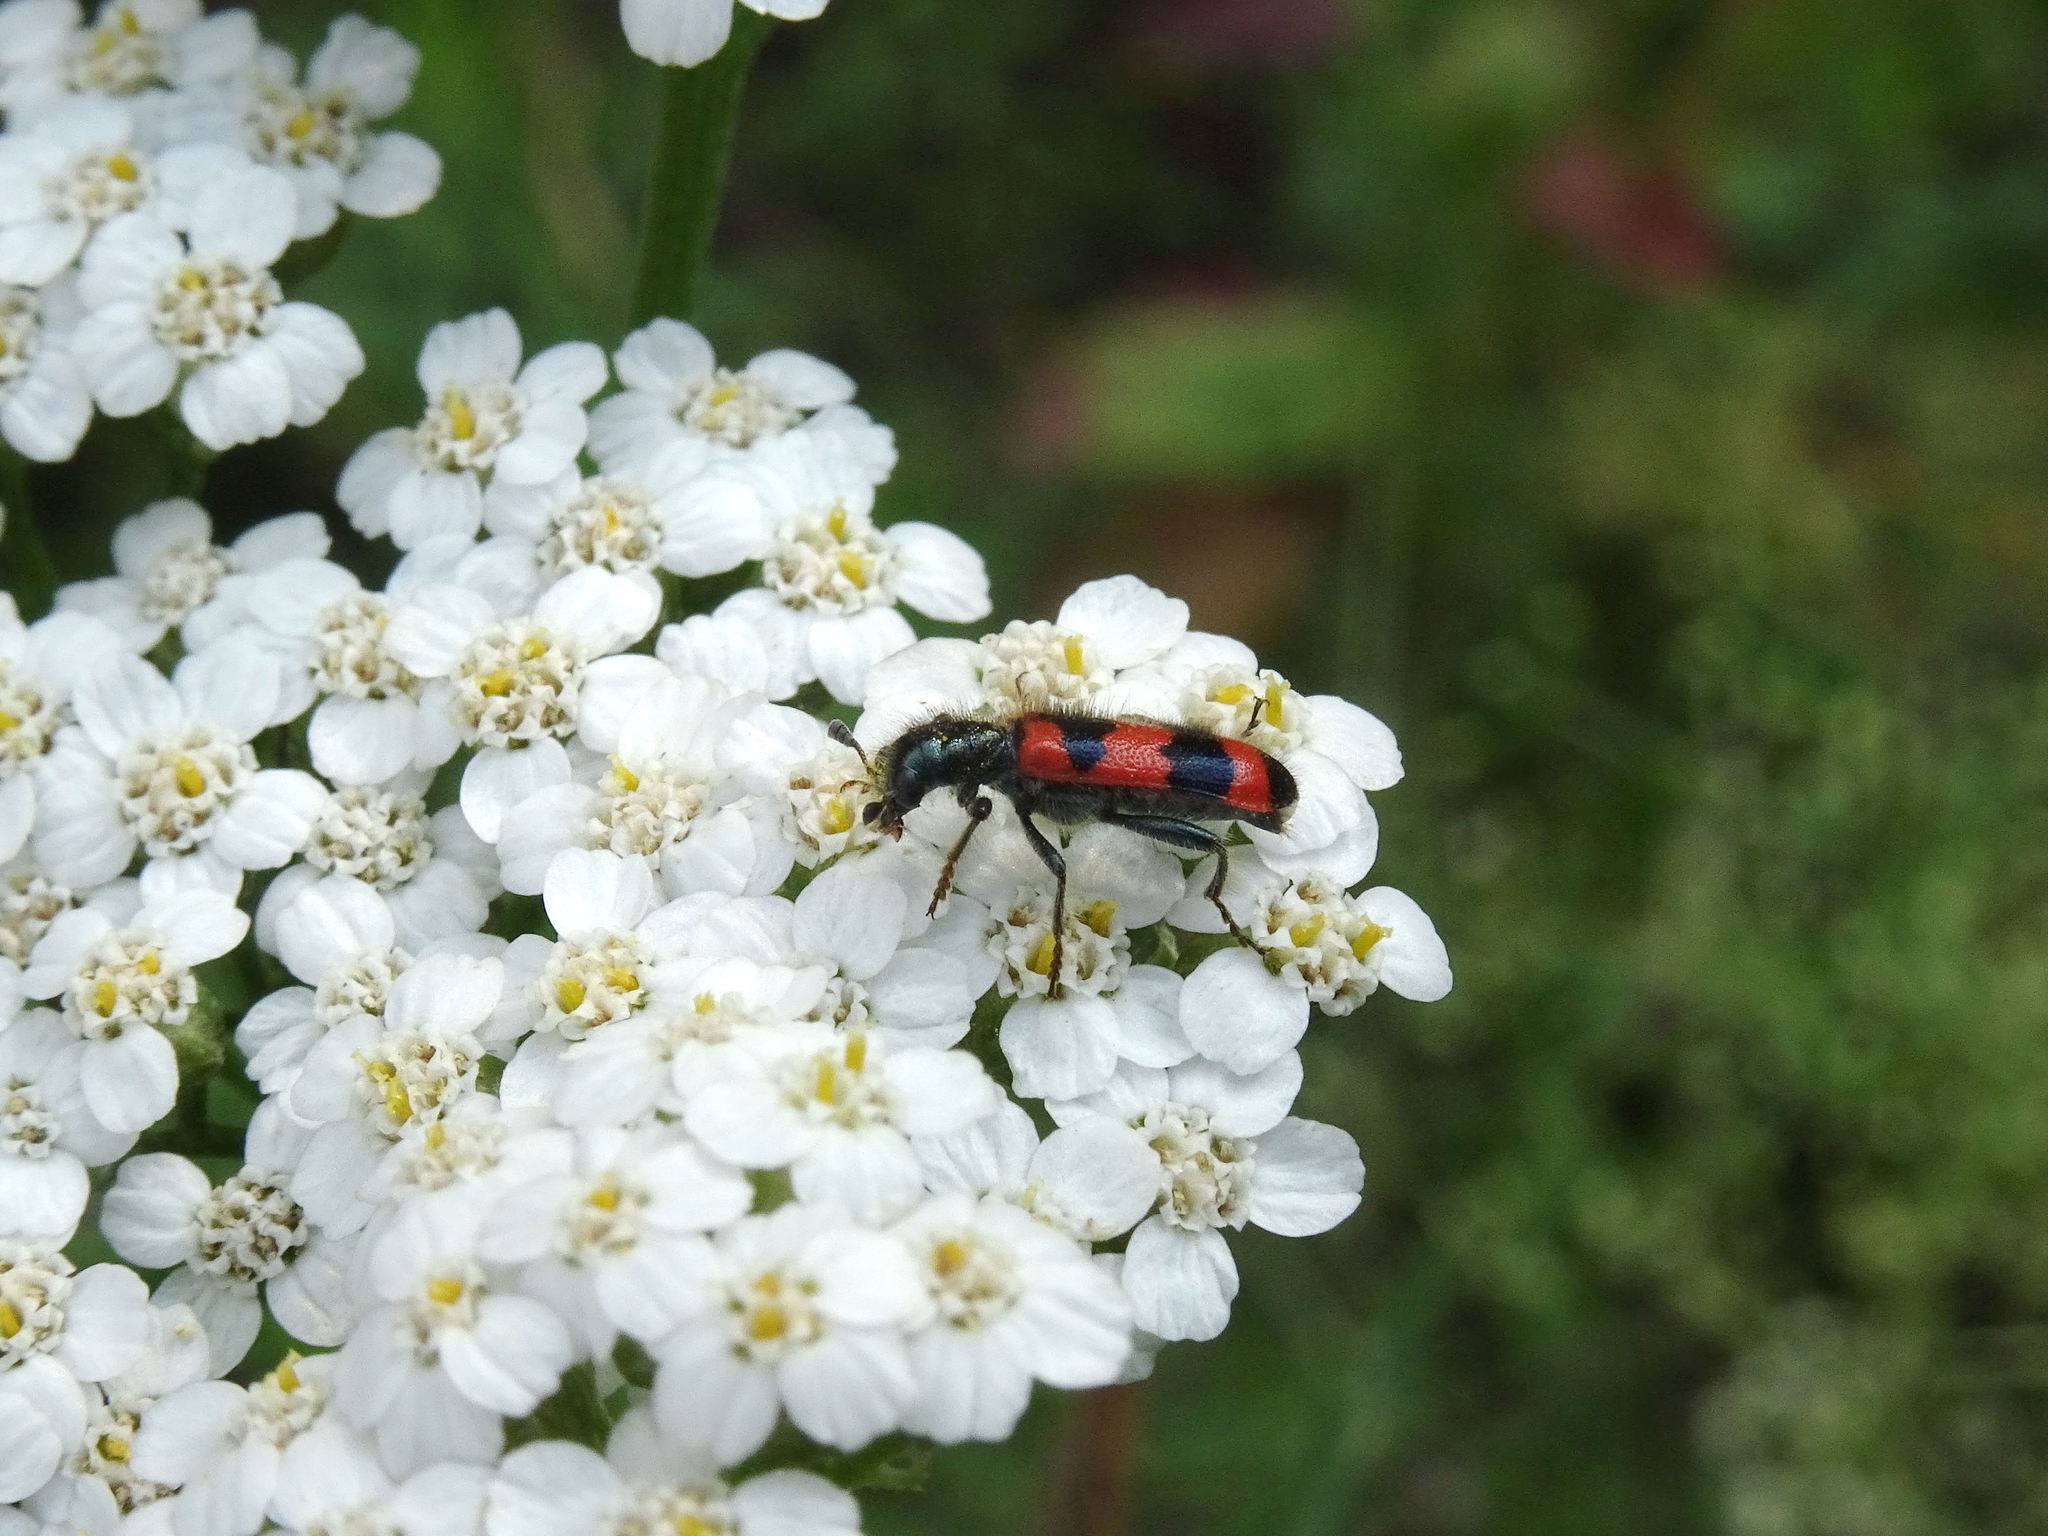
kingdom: Animalia
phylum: Arthropoda
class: Insecta
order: Coleoptera
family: Cleridae
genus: Trichodes
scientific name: Trichodes apiarius
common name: Bee-eating beetle
